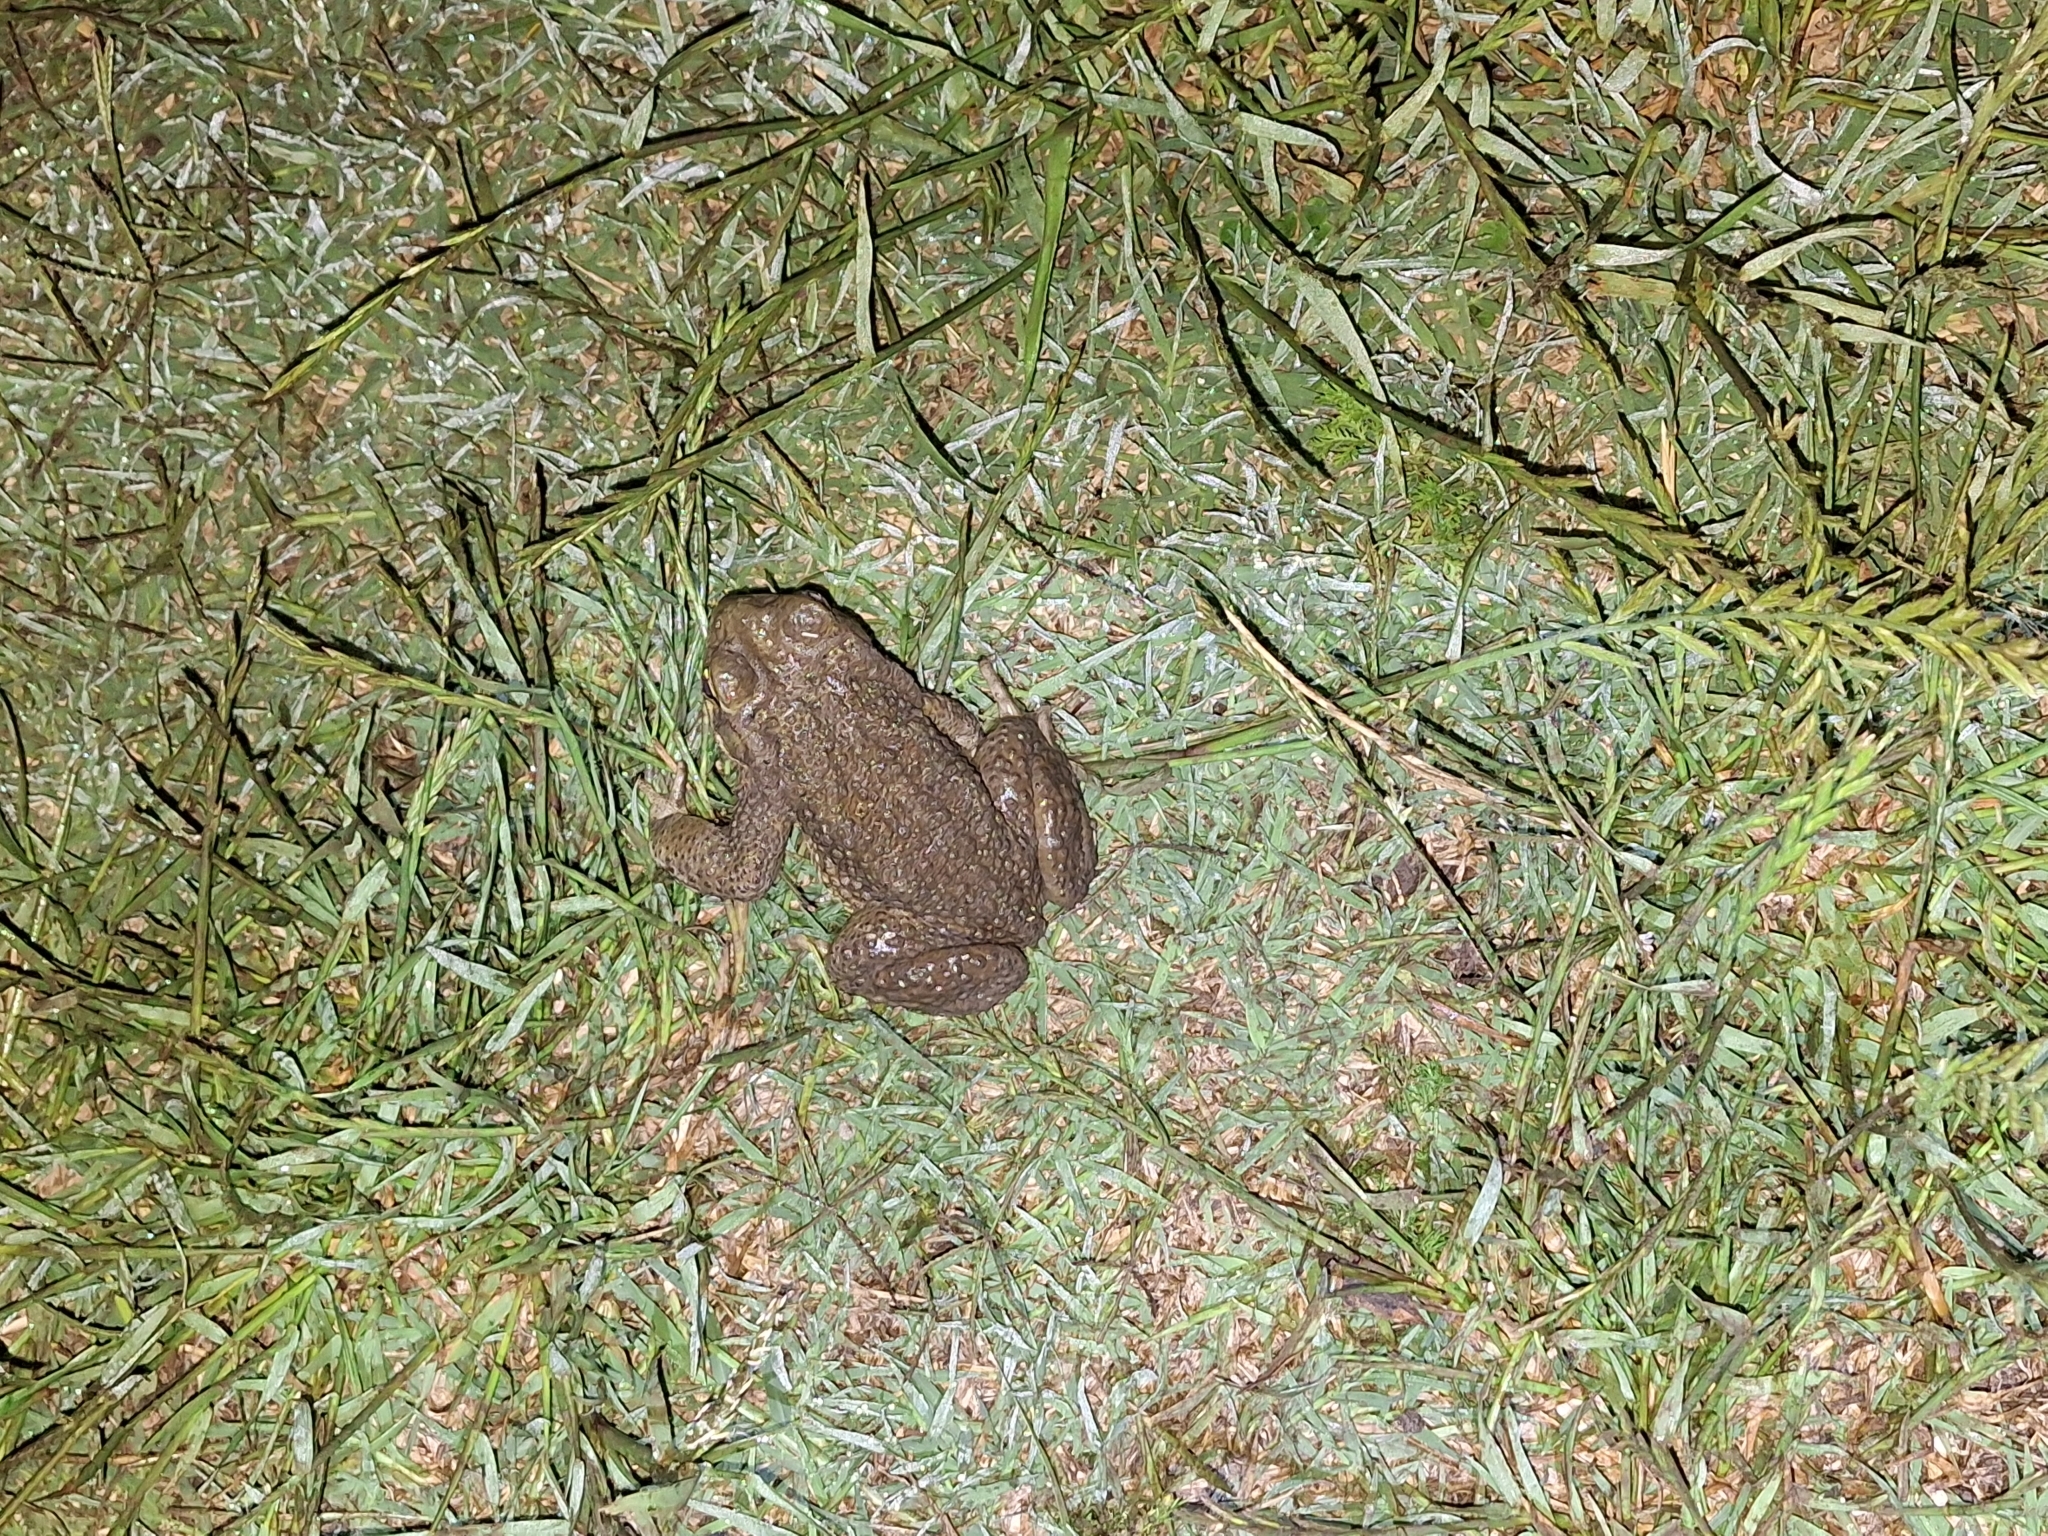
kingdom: Animalia
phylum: Chordata
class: Amphibia
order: Anura
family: Bufonidae
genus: Rhinella
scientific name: Rhinella arenarum
